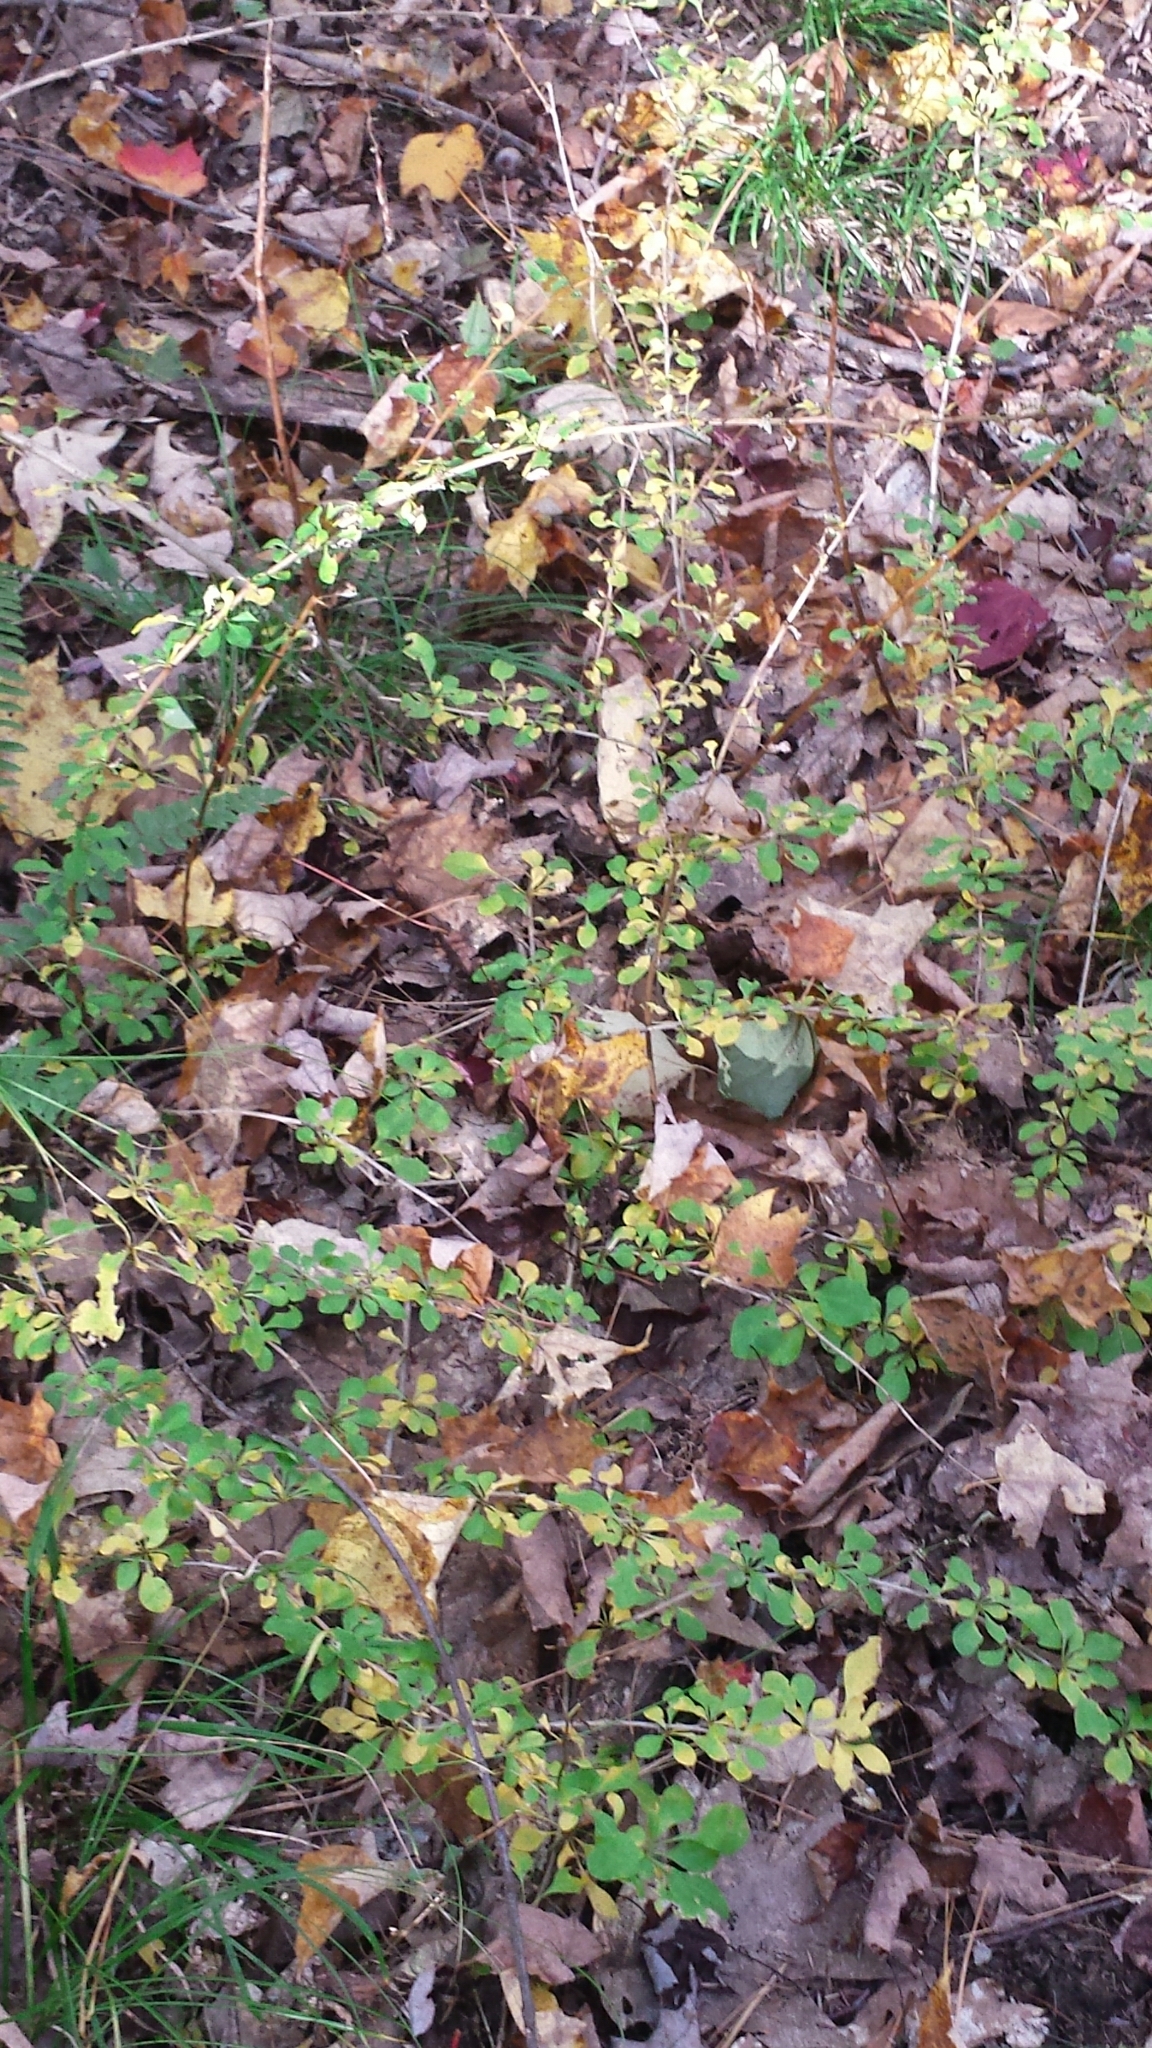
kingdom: Plantae
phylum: Tracheophyta
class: Magnoliopsida
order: Ranunculales
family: Berberidaceae
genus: Berberis
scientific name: Berberis thunbergii
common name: Japanese barberry
